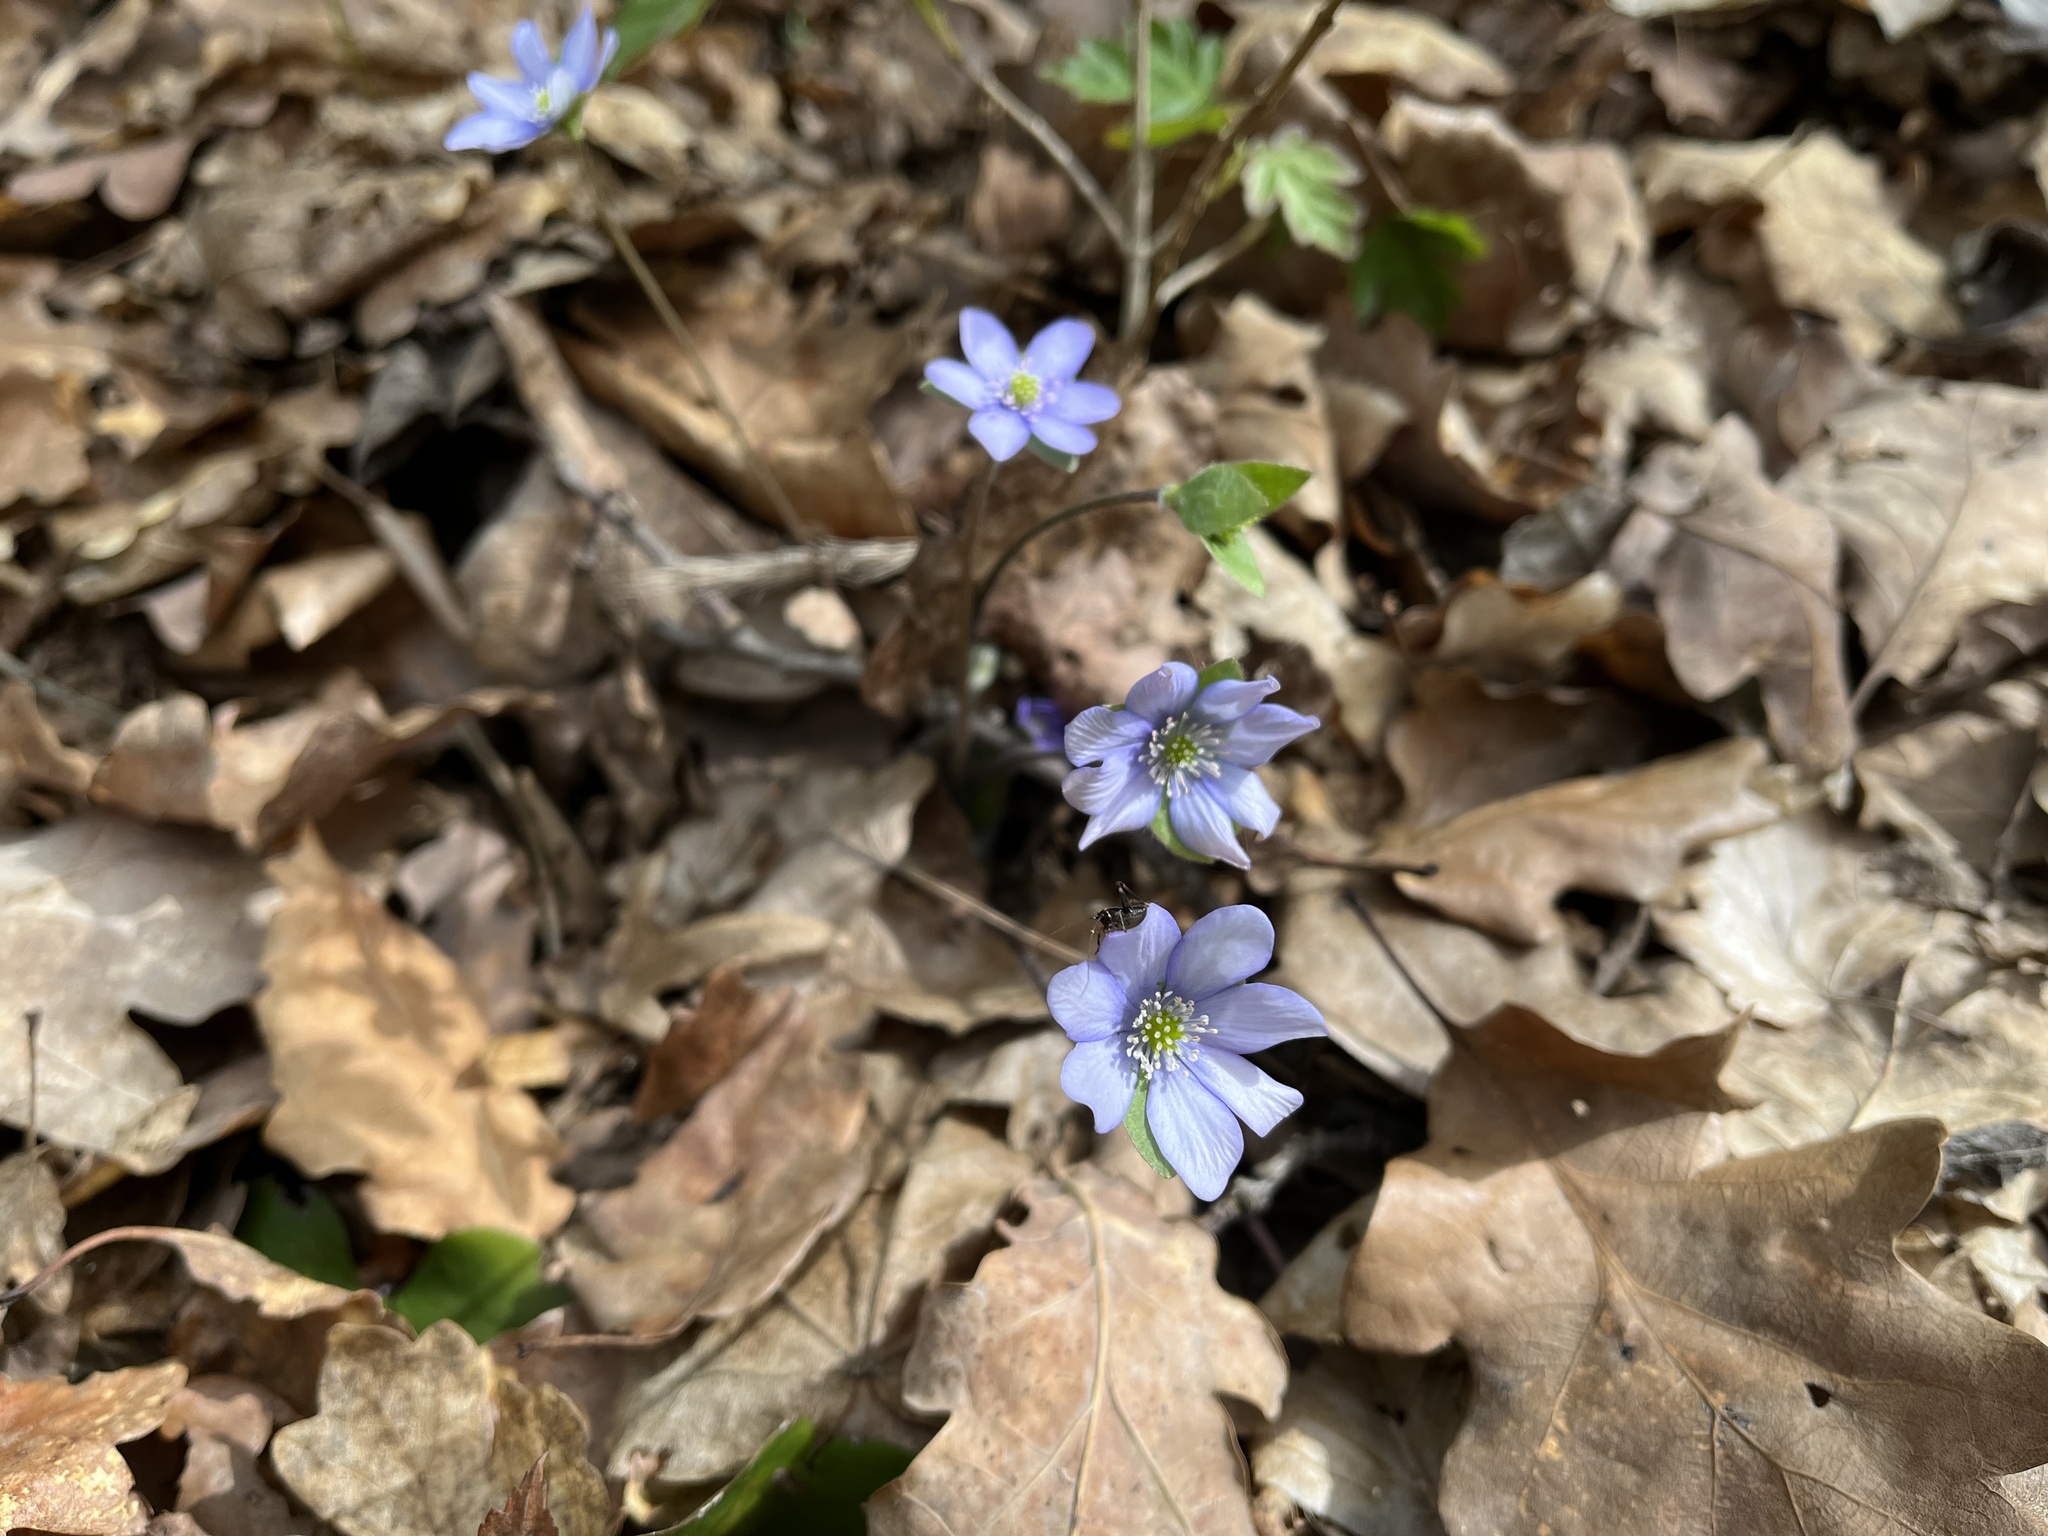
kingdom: Plantae
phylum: Tracheophyta
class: Magnoliopsida
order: Ranunculales
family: Ranunculaceae
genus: Hepatica
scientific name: Hepatica nobilis
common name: Liverleaf
